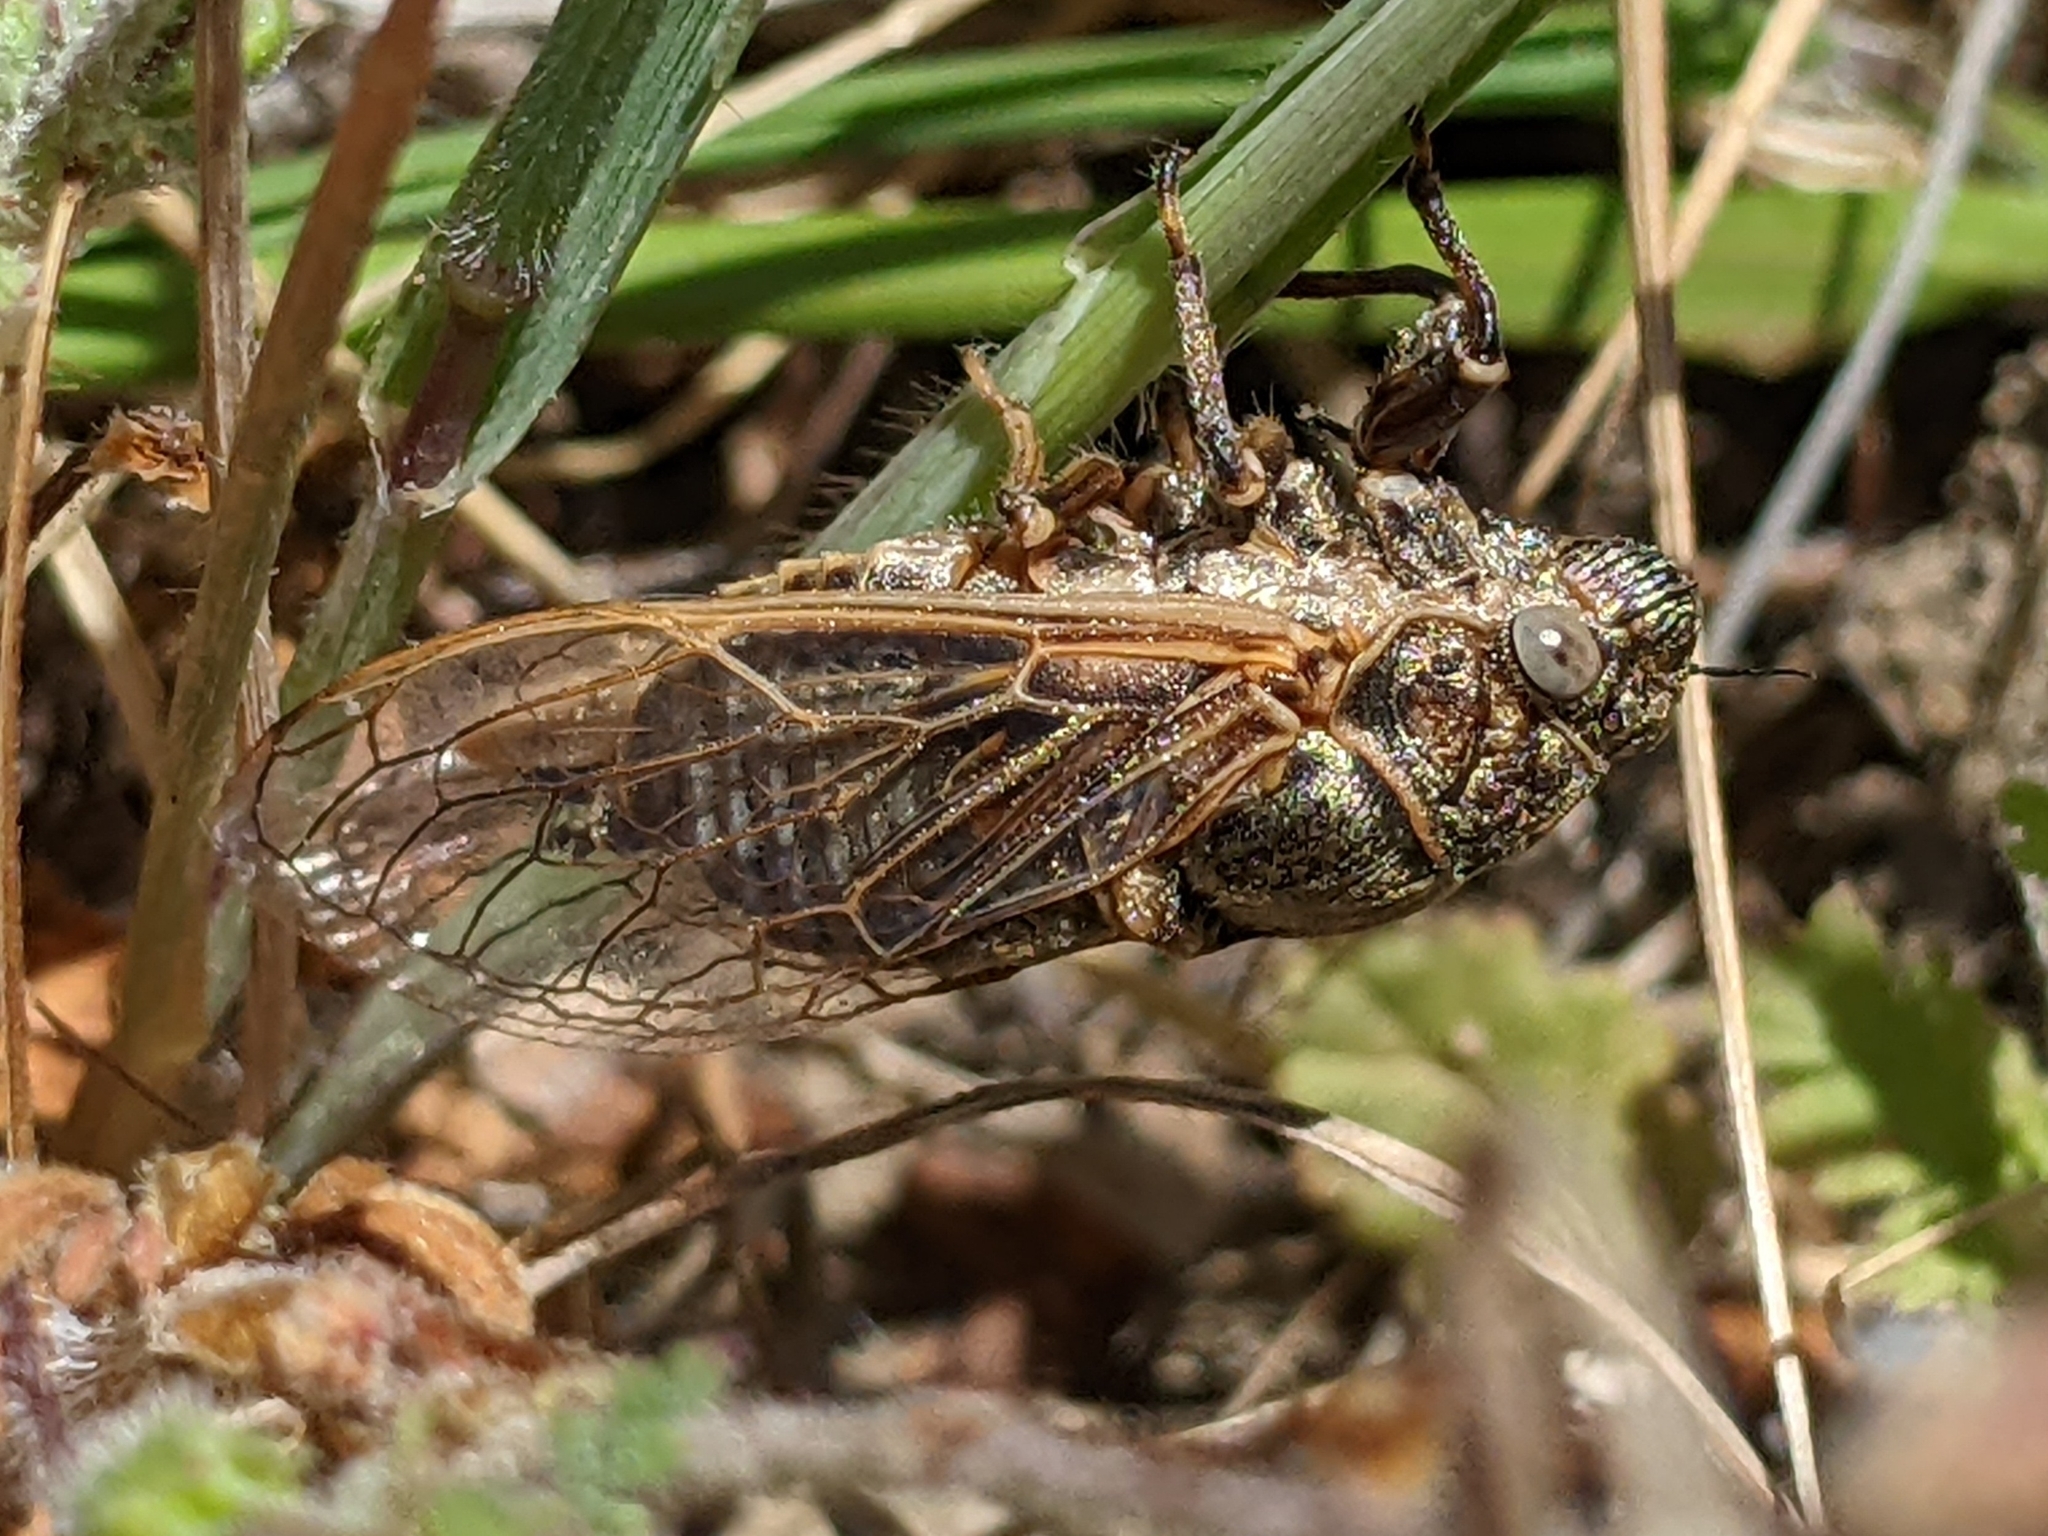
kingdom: Animalia
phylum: Arthropoda
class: Insecta
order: Hemiptera
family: Cicadidae
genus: Tibicinoides
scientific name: Tibicinoides minuta
